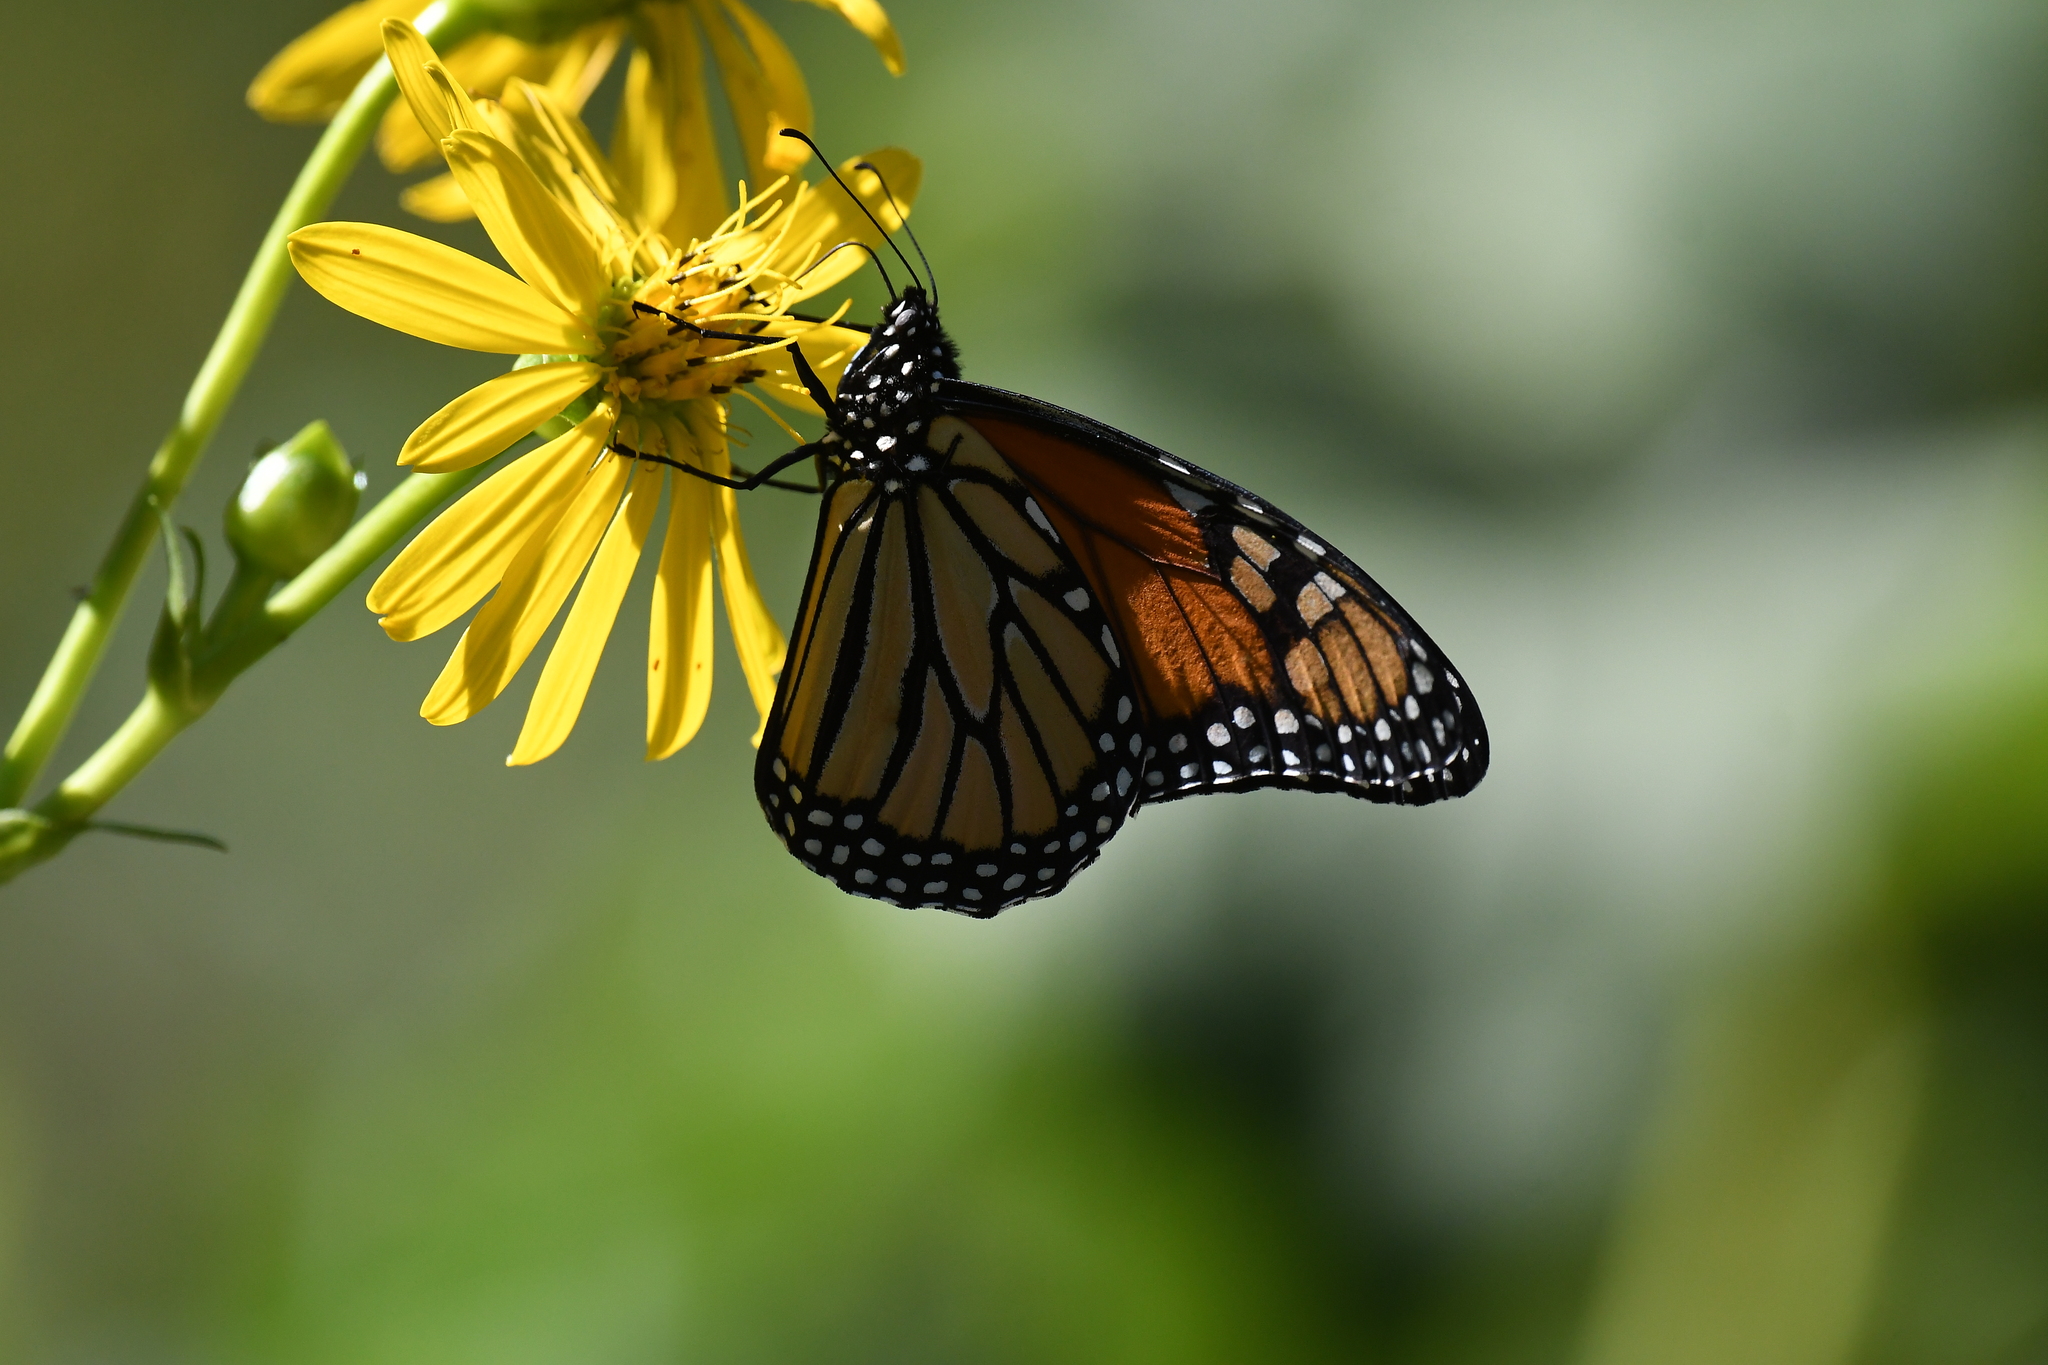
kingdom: Animalia
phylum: Arthropoda
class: Insecta
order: Lepidoptera
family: Nymphalidae
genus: Danaus
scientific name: Danaus plexippus
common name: Monarch
